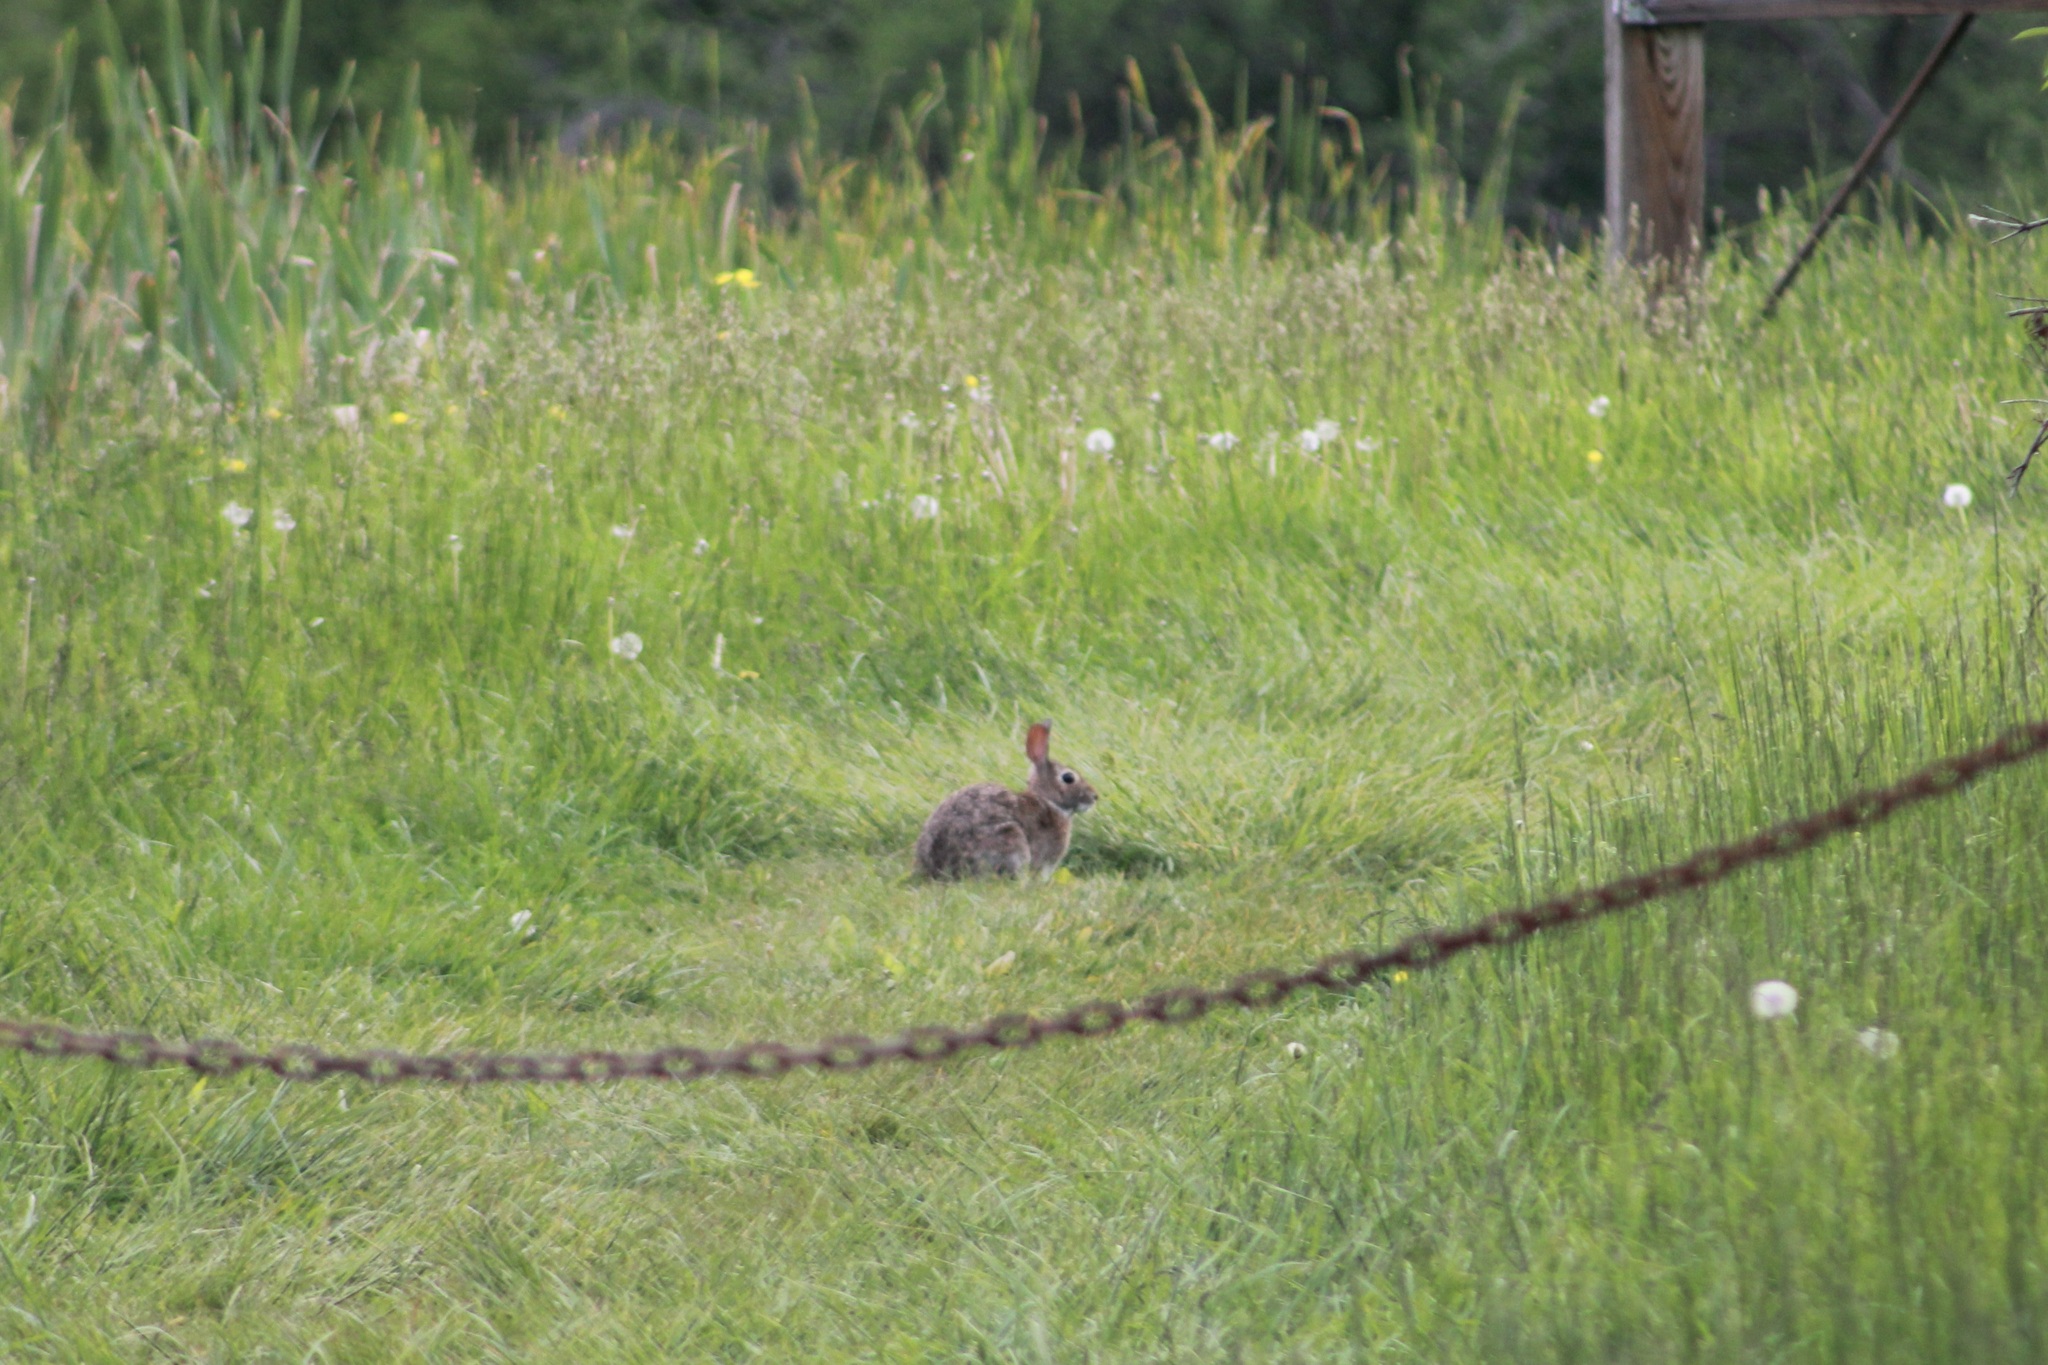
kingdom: Animalia
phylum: Chordata
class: Mammalia
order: Lagomorpha
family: Leporidae
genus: Sylvilagus
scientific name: Sylvilagus floridanus
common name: Eastern cottontail
